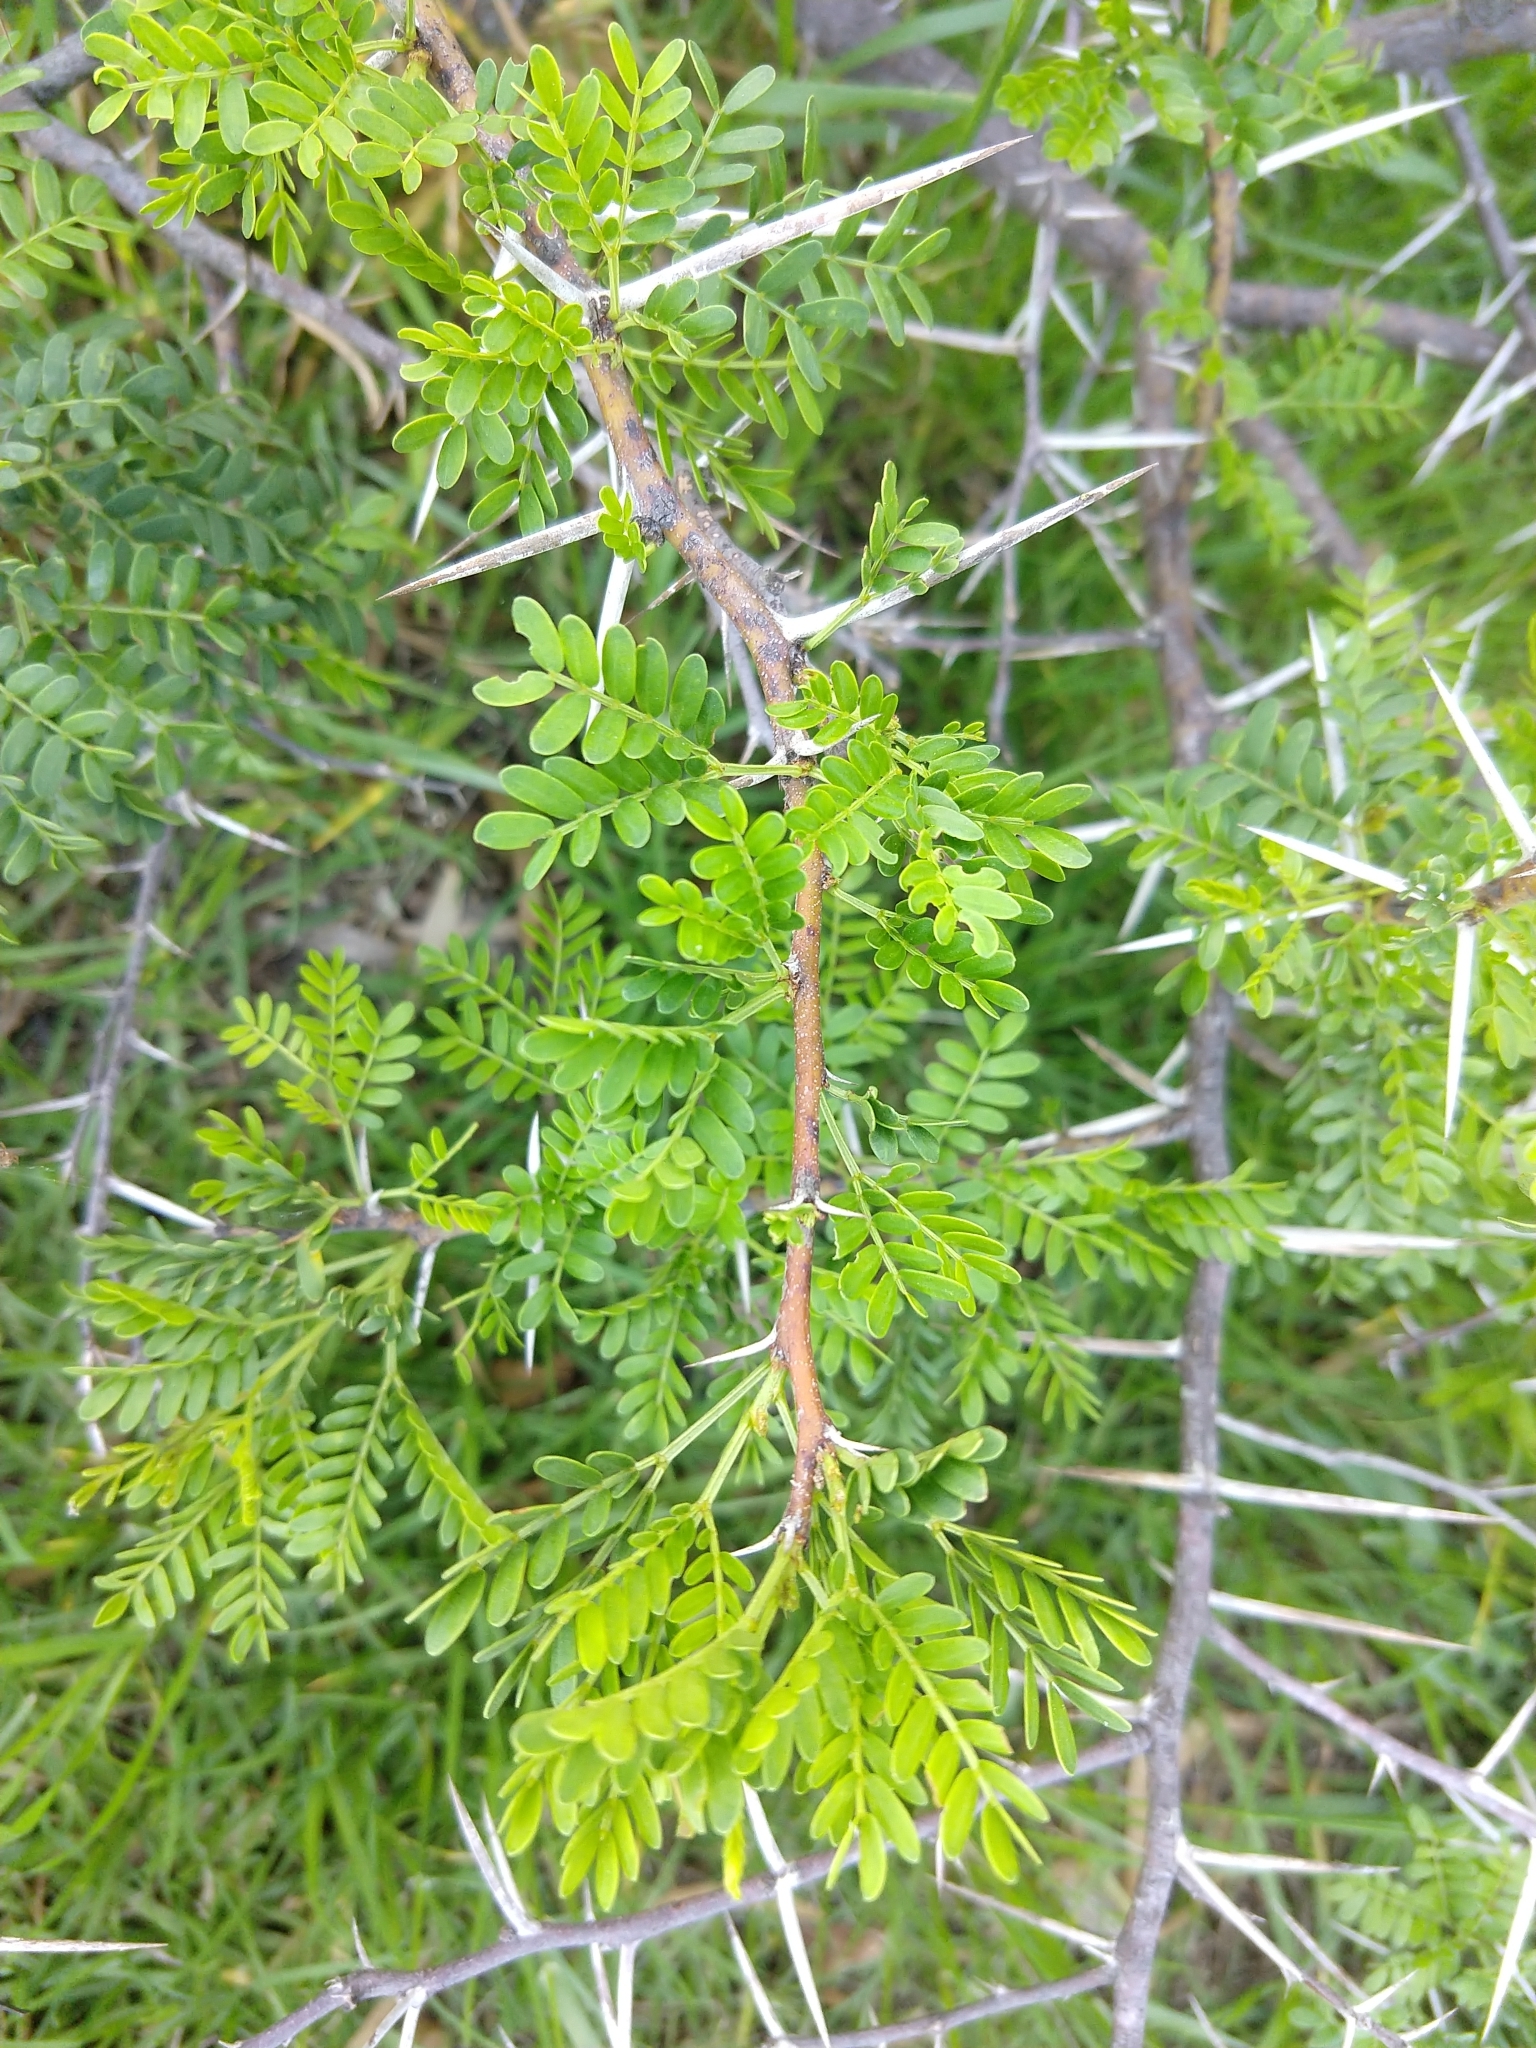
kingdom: Plantae
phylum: Tracheophyta
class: Magnoliopsida
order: Fabales
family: Fabaceae
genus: Vachellia
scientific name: Vachellia karroo
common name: Sweet thorn
